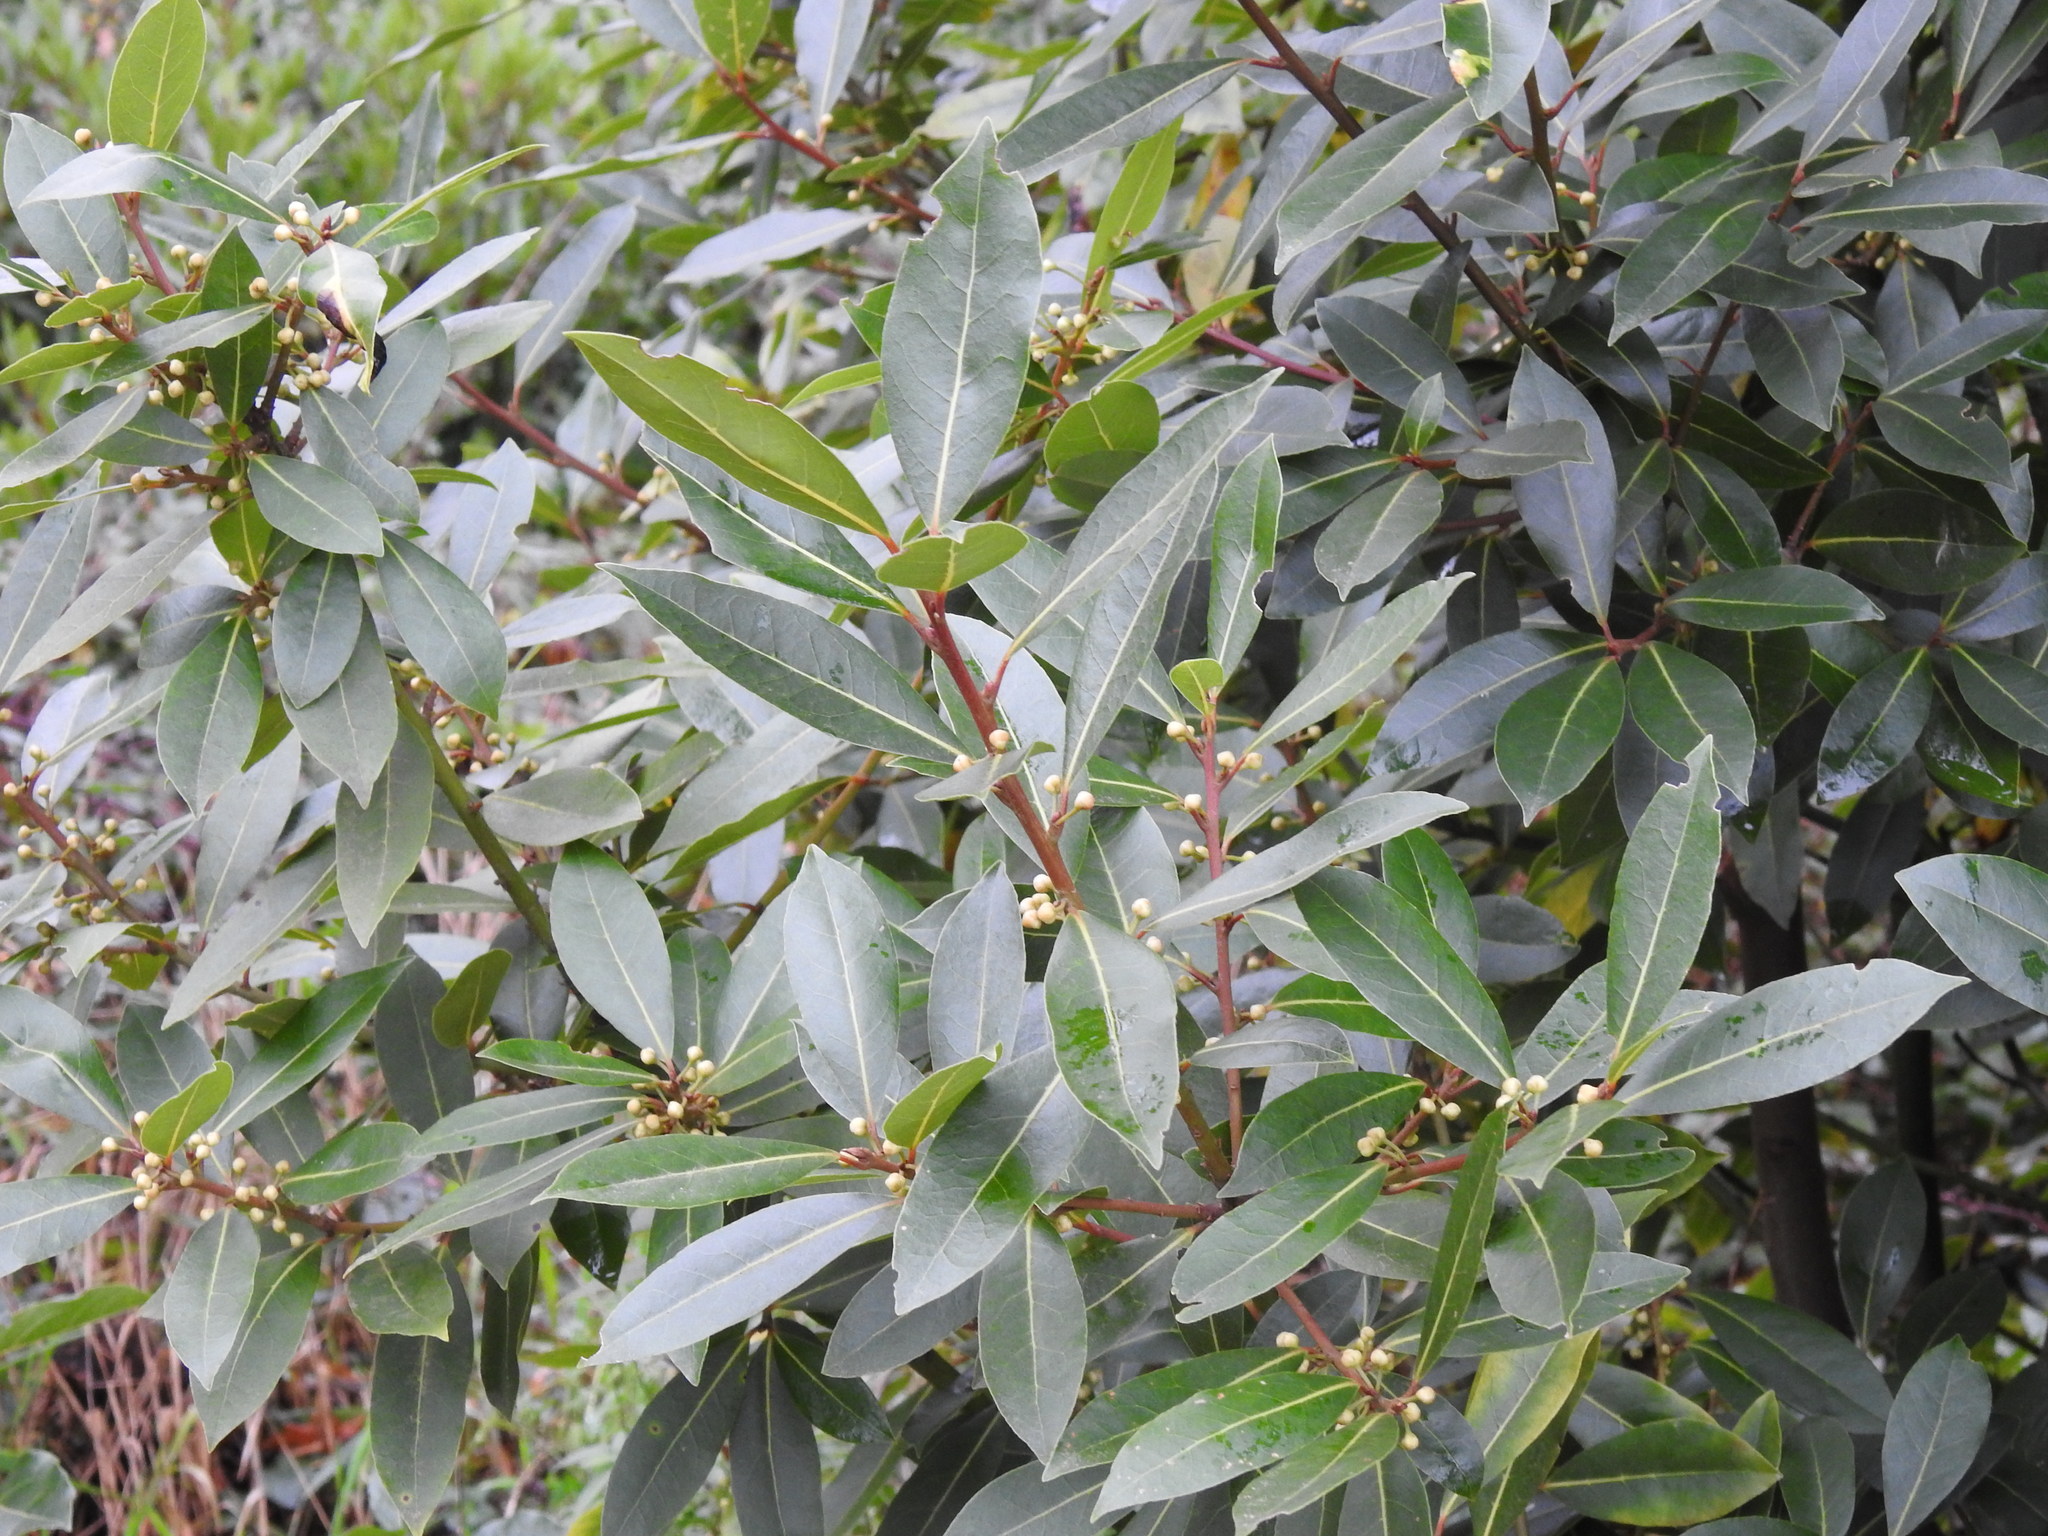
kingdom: Plantae
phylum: Tracheophyta
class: Magnoliopsida
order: Laurales
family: Lauraceae
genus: Laurus
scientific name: Laurus nobilis
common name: Bay
